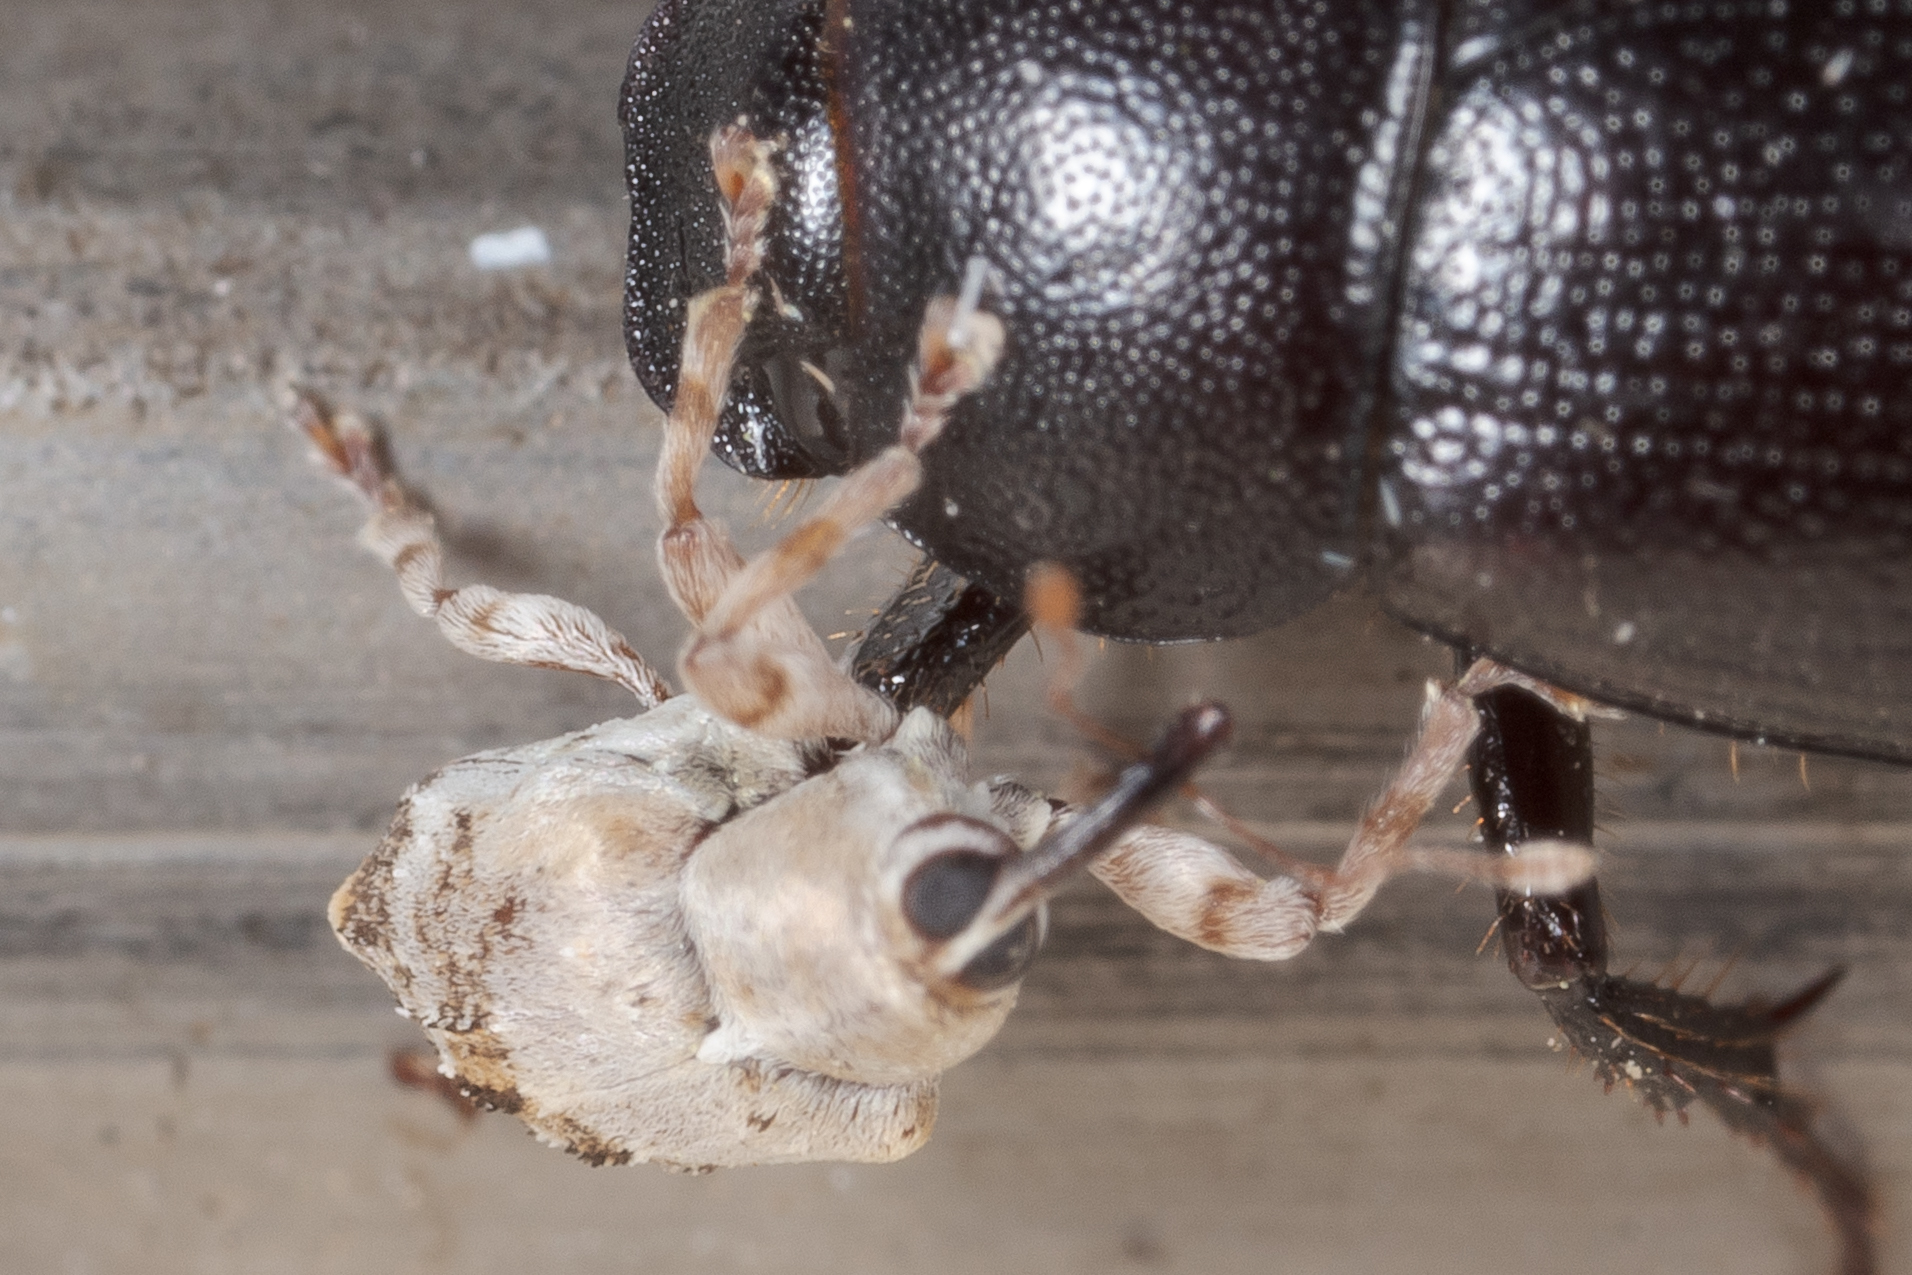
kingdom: Animalia
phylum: Arthropoda
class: Insecta
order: Coleoptera
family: Curculionidae
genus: Lignyodes
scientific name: Lignyodes pallidus
